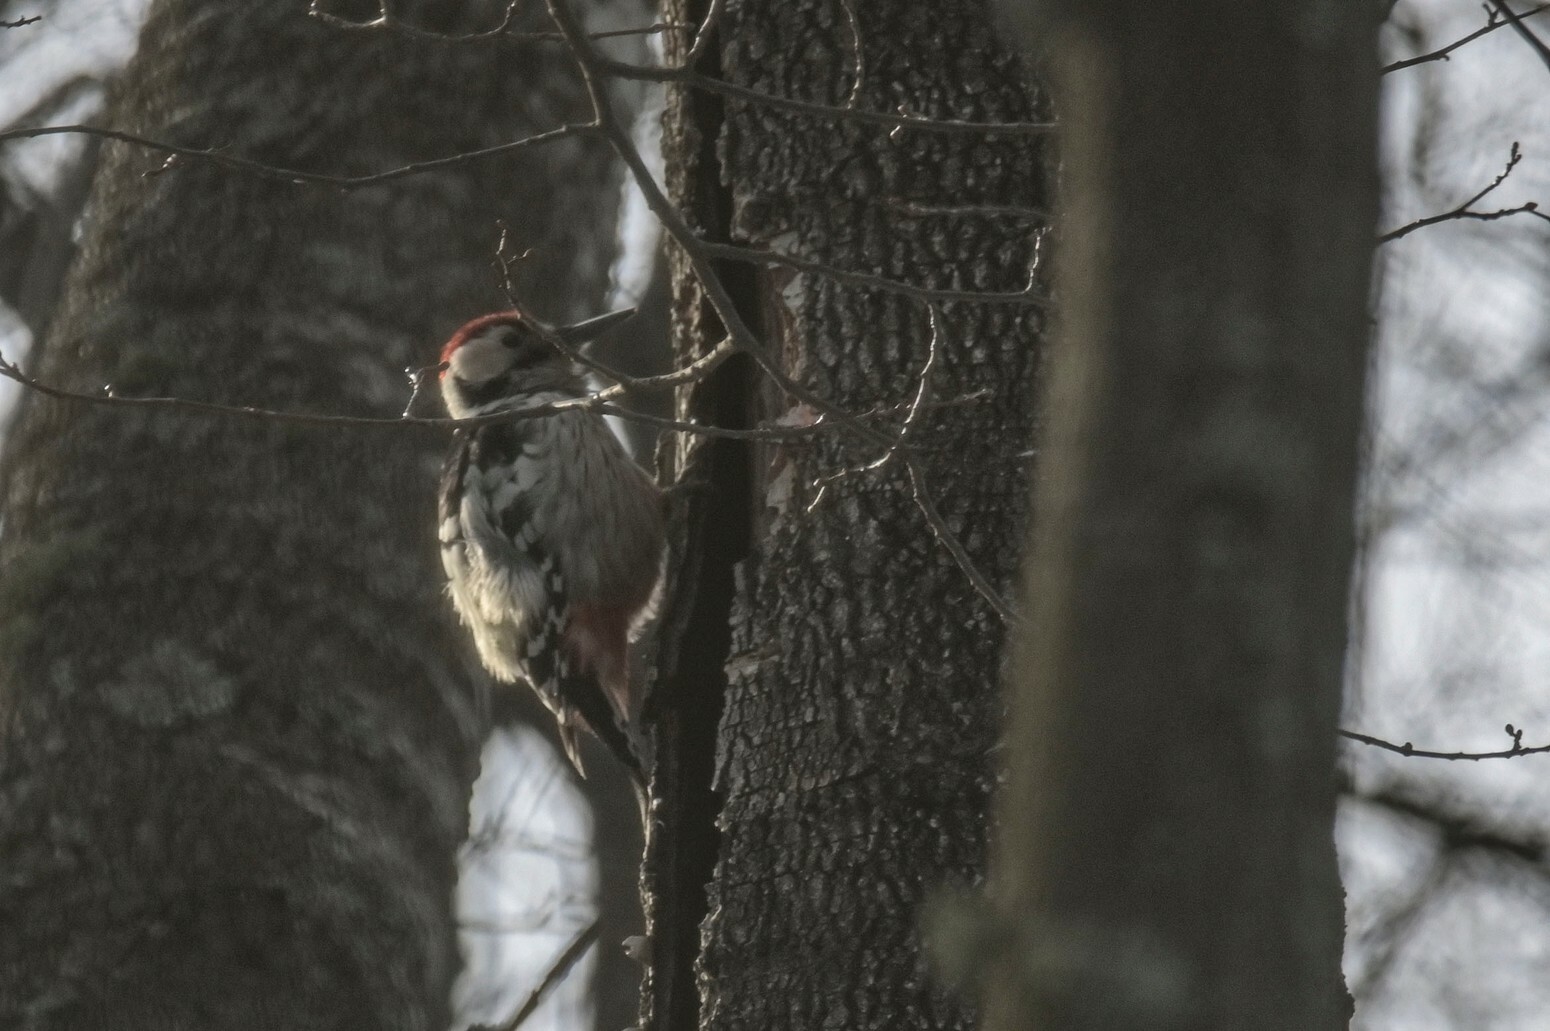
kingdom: Animalia
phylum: Chordata
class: Aves
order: Piciformes
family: Picidae
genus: Dendrocopos
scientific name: Dendrocopos leucotos
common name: White-backed woodpecker
